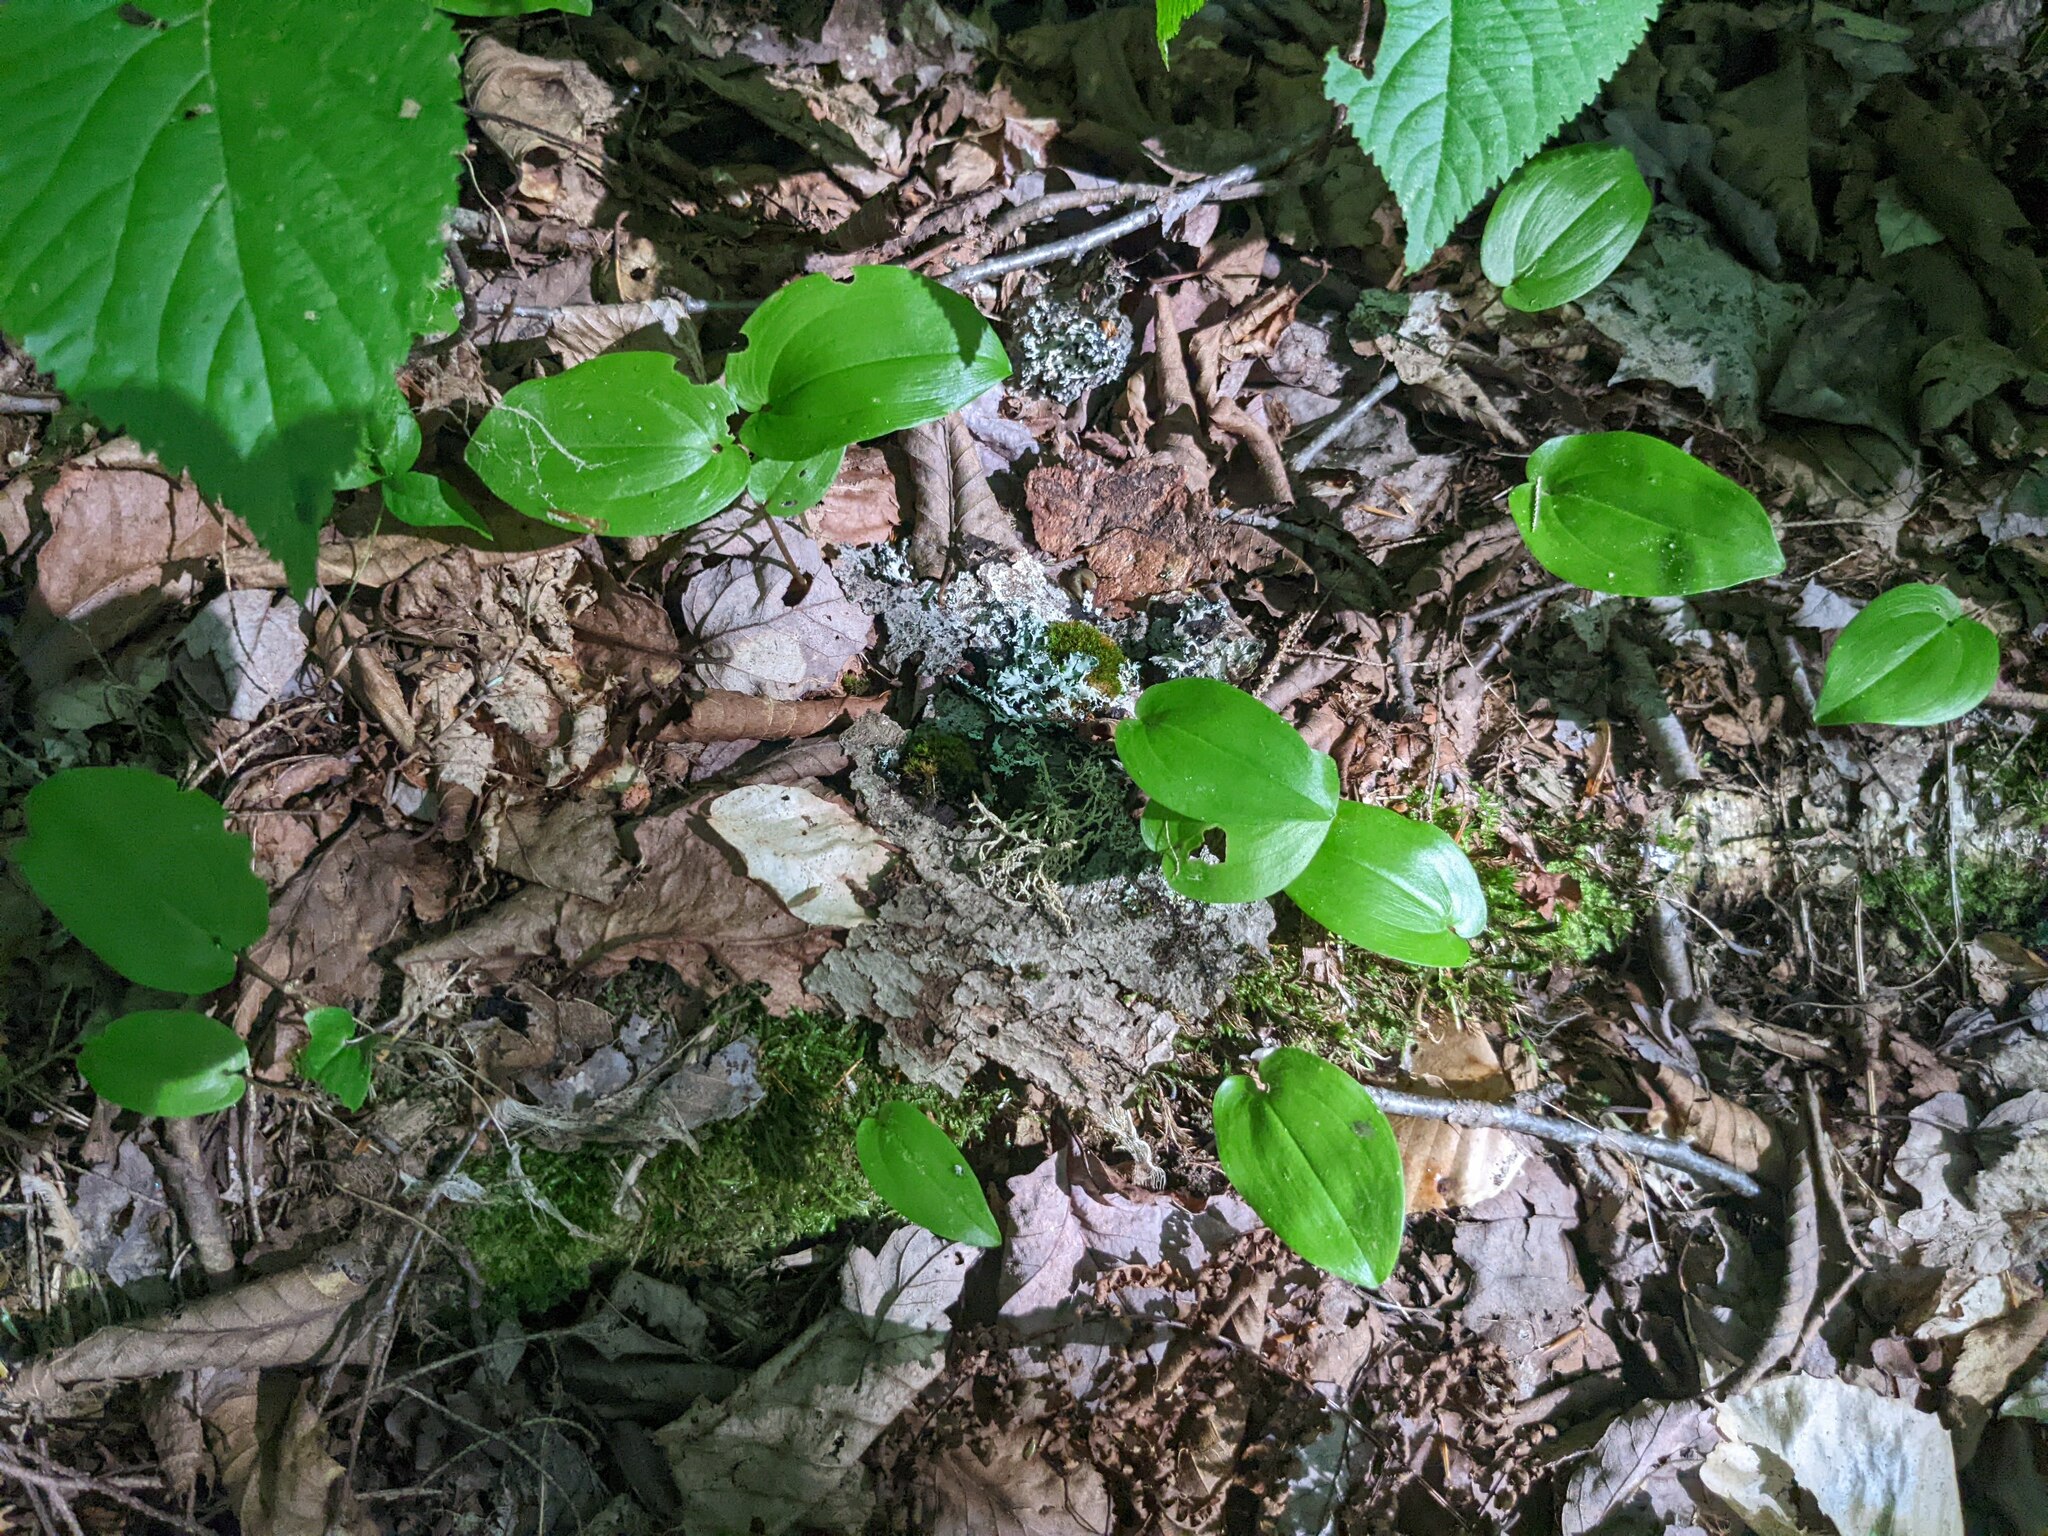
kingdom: Plantae
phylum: Tracheophyta
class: Liliopsida
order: Asparagales
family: Asparagaceae
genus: Maianthemum
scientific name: Maianthemum canadense
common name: False lily-of-the-valley
